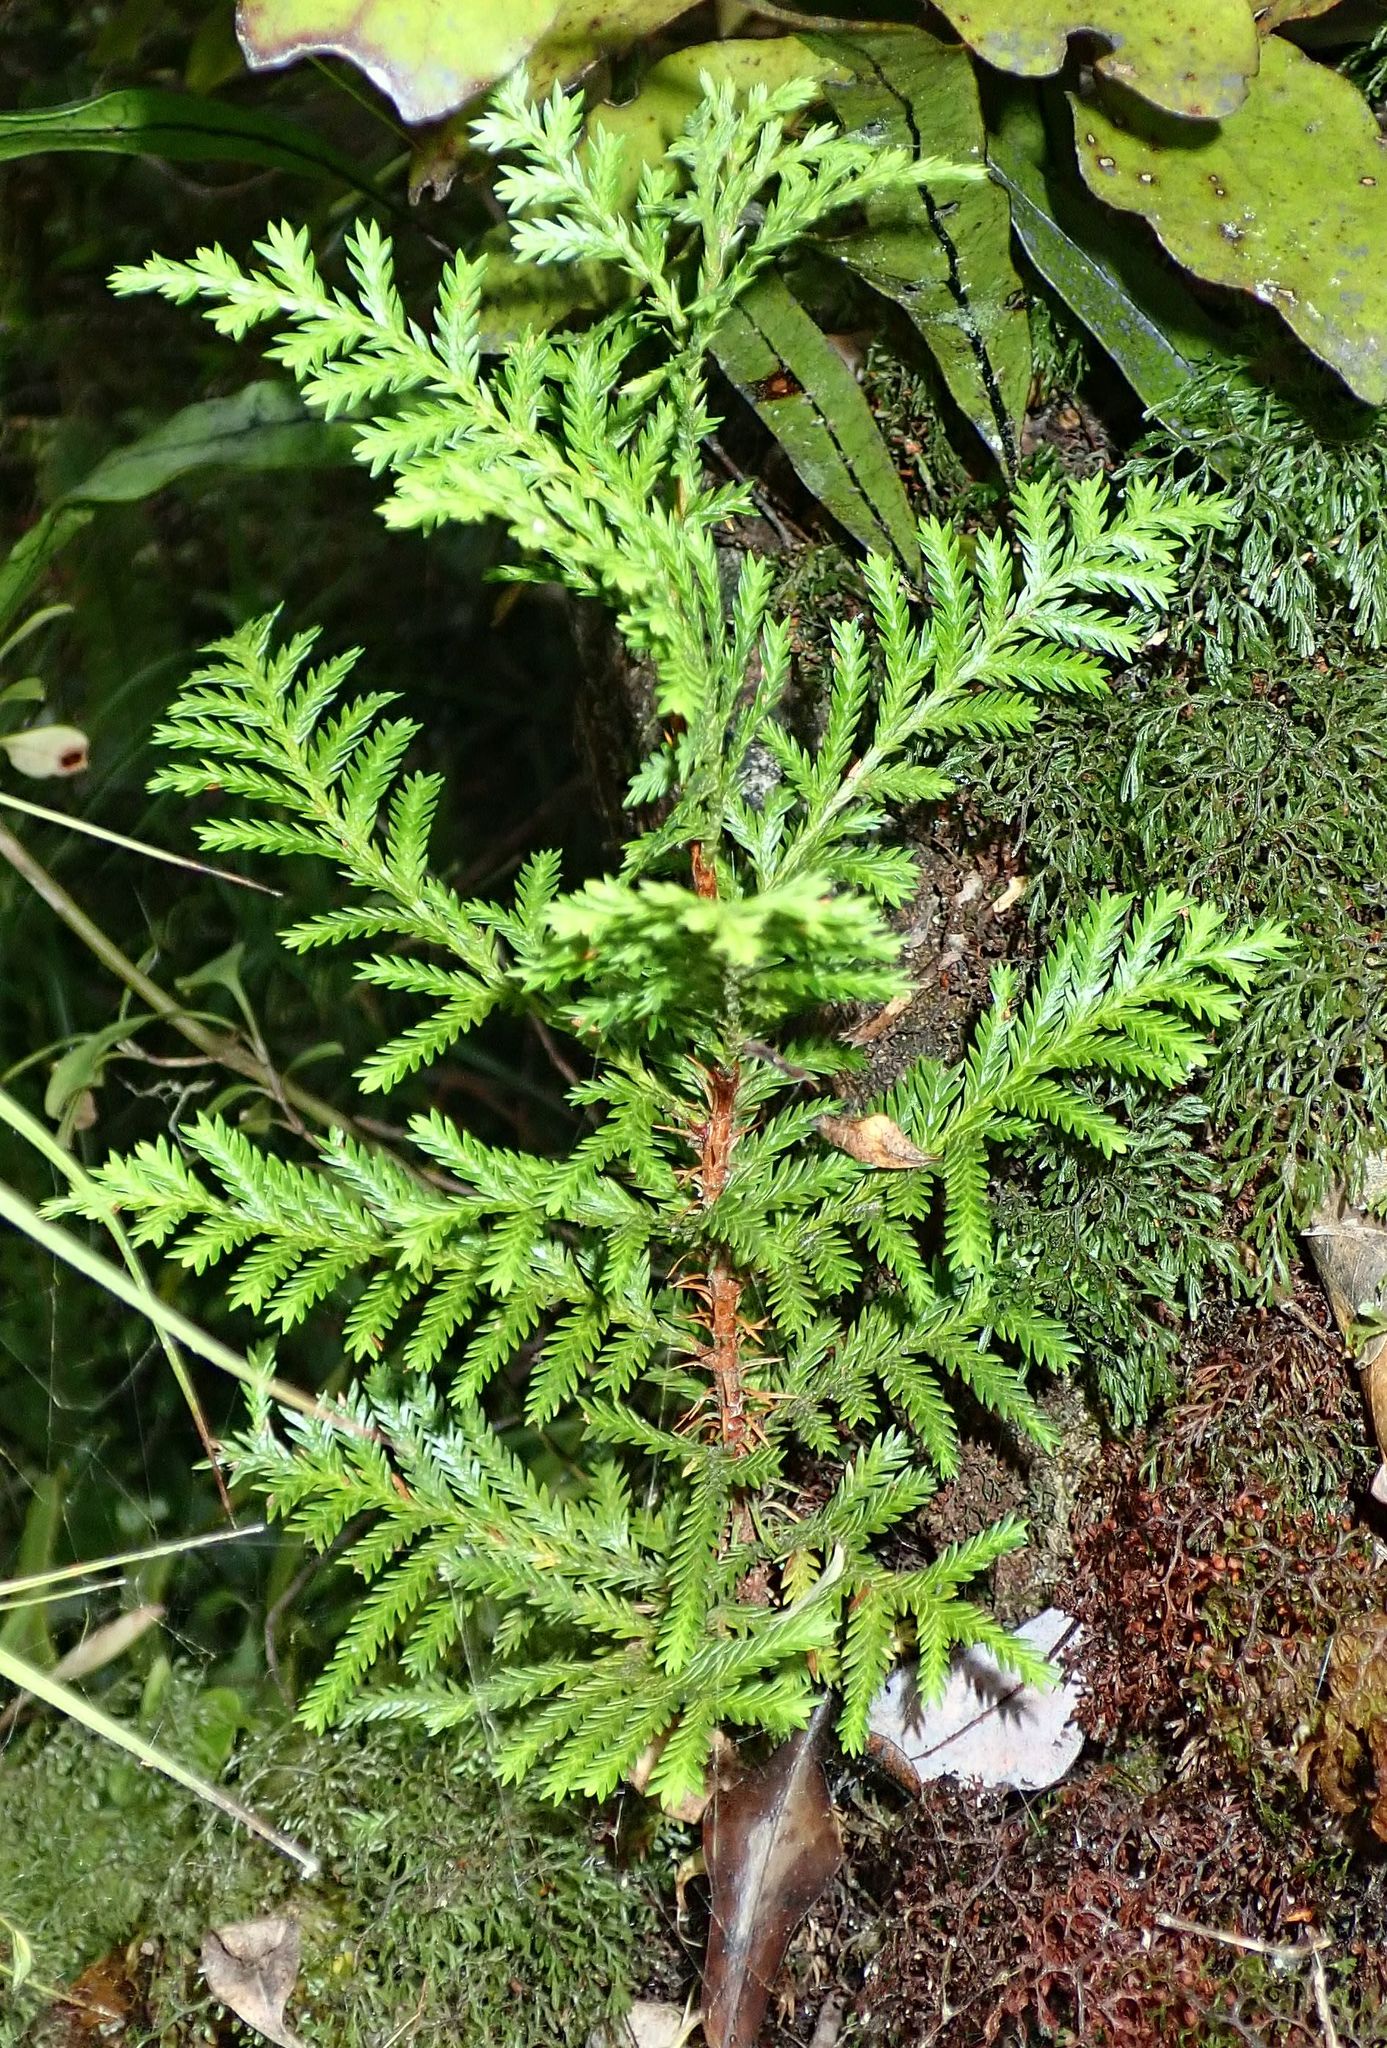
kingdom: Plantae
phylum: Tracheophyta
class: Pinopsida
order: Pinales
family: Cupressaceae
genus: Libocedrus
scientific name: Libocedrus bidwillii
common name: Cedar
